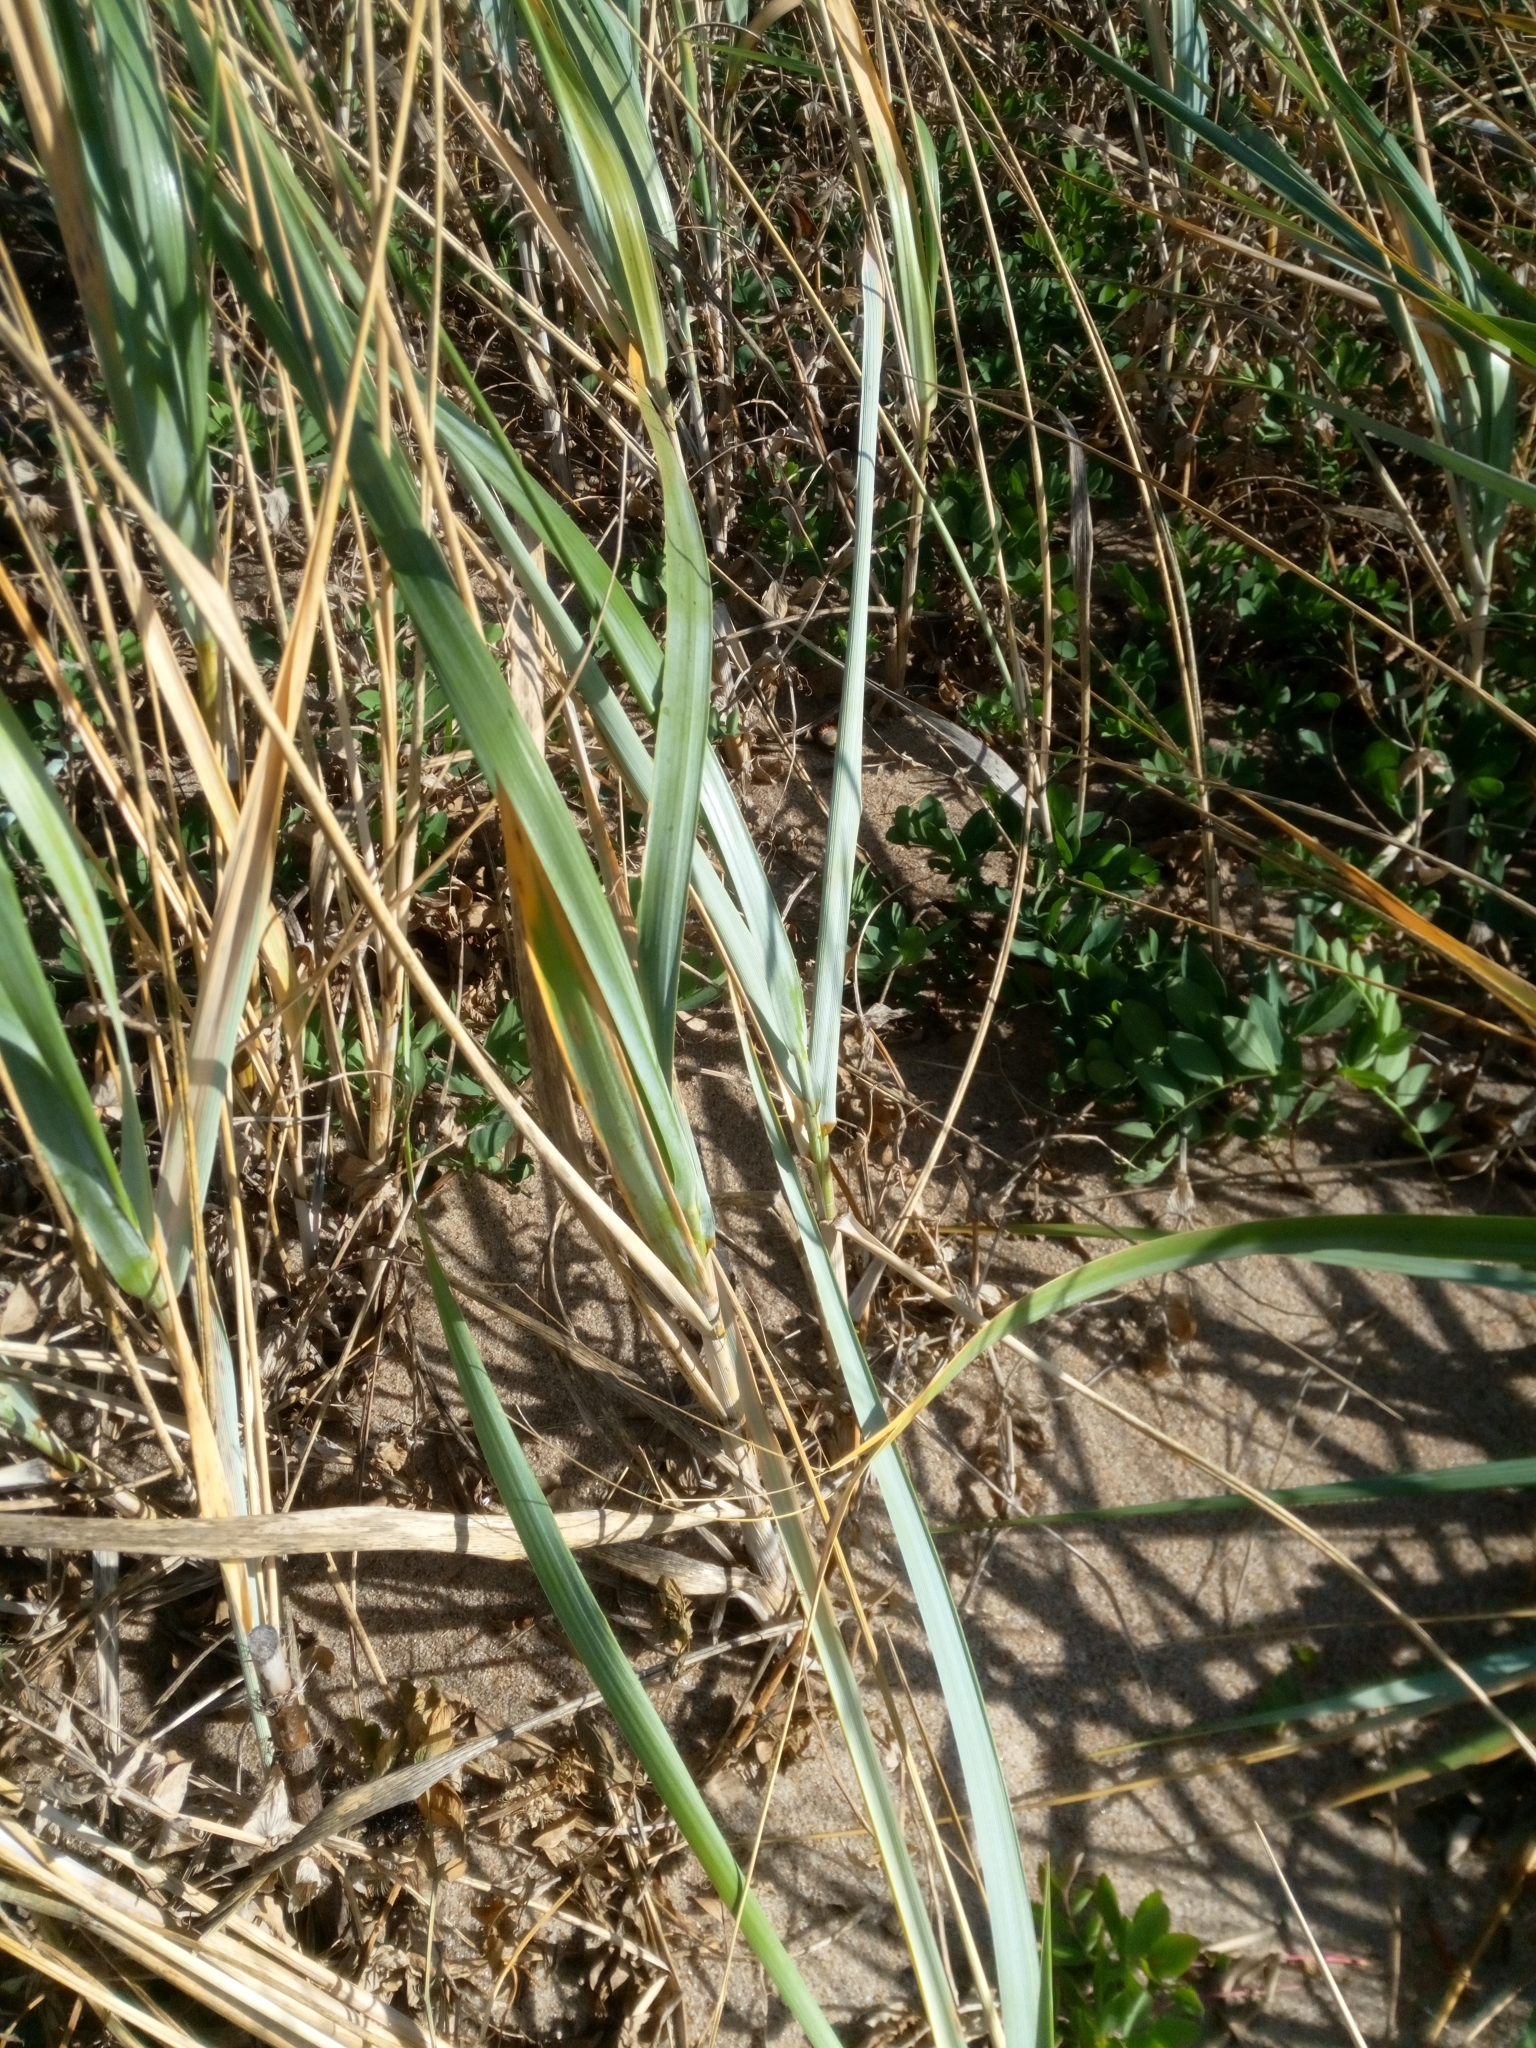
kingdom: Plantae
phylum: Tracheophyta
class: Liliopsida
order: Poales
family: Poaceae
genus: Leymus
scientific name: Leymus arenarius
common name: Lyme-grass
